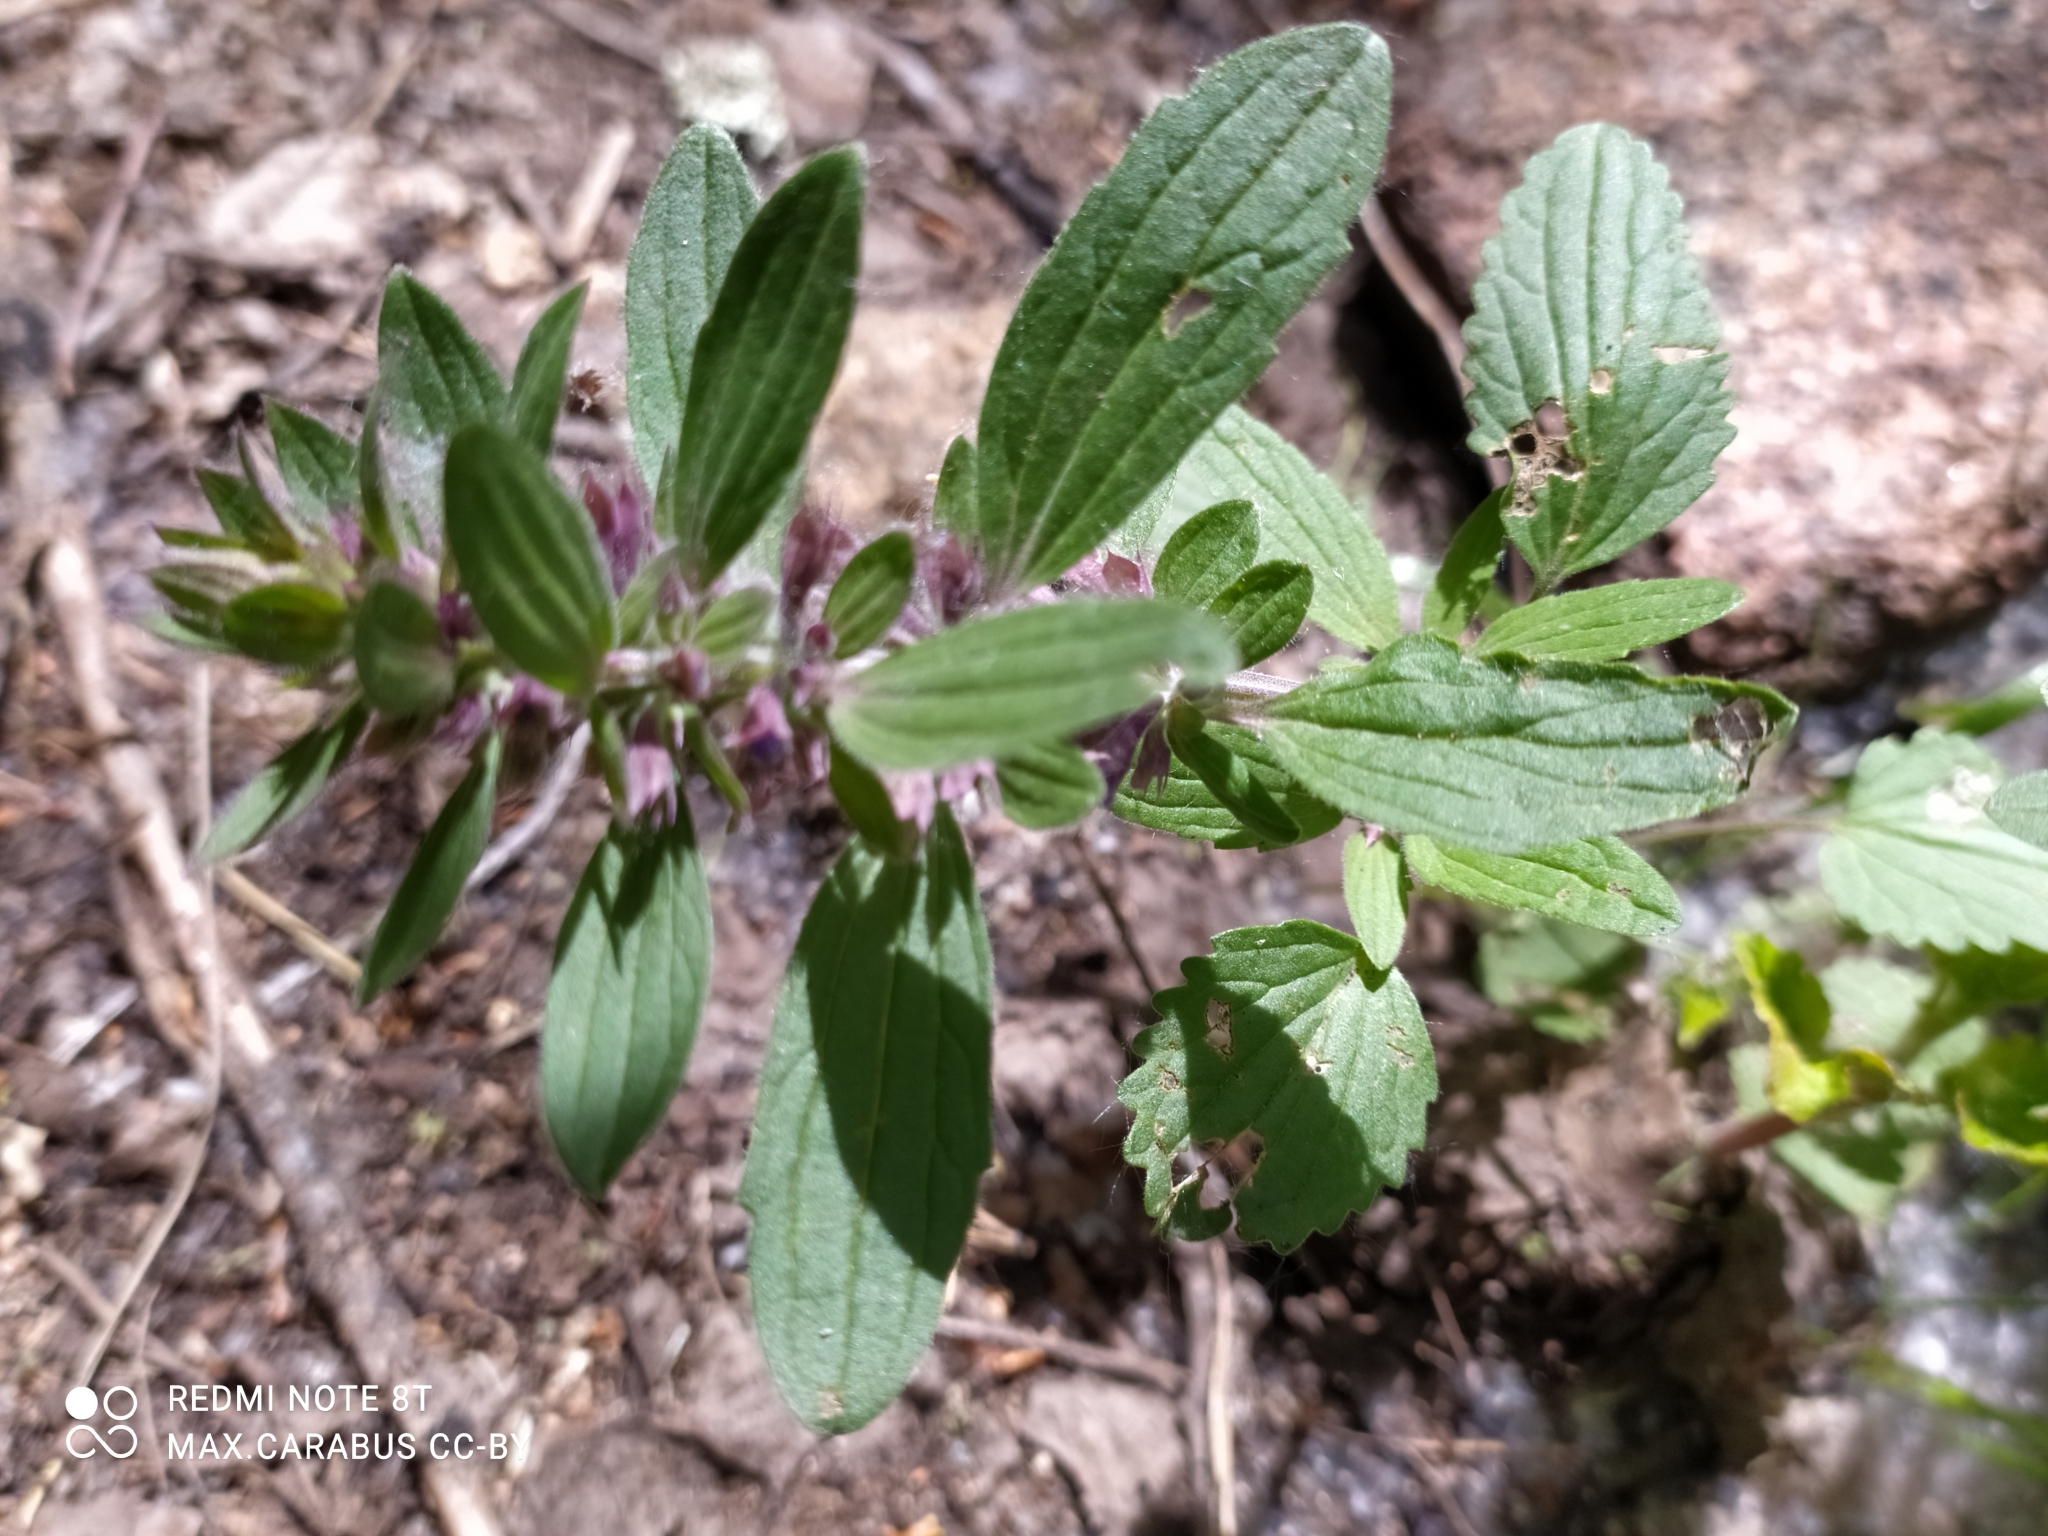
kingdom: Plantae
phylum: Tracheophyta
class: Magnoliopsida
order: Lamiales
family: Lamiaceae
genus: Dracocephalum
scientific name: Dracocephalum nutans
